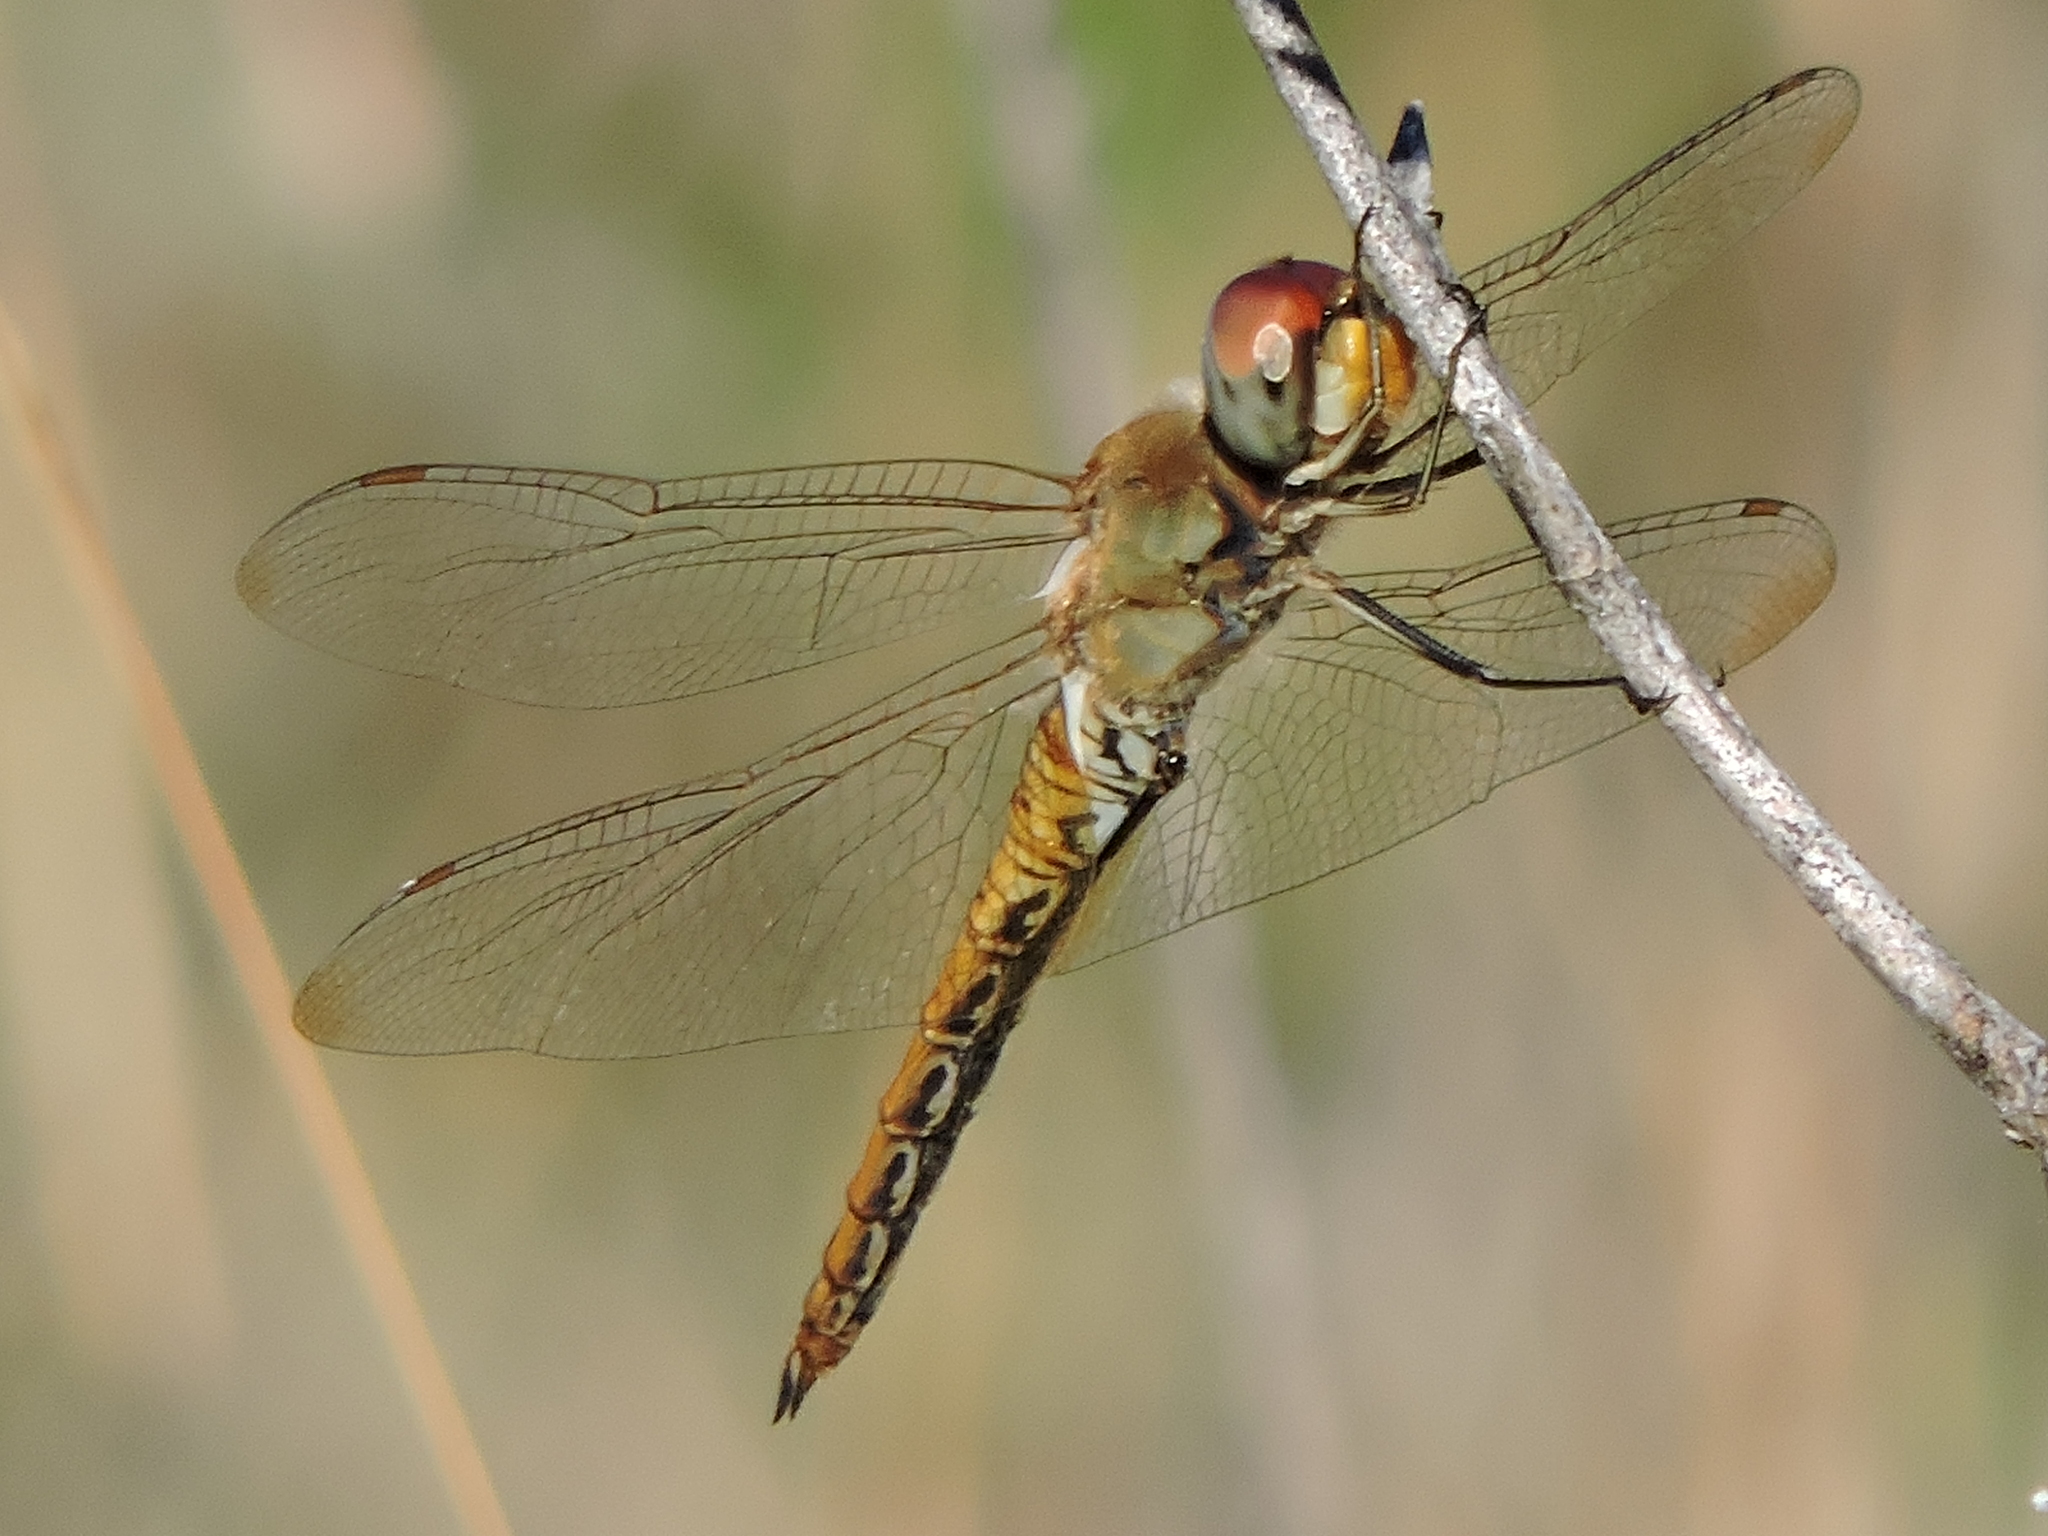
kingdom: Animalia
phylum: Arthropoda
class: Insecta
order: Odonata
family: Libellulidae
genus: Pantala
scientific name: Pantala flavescens
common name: Wandering glider
